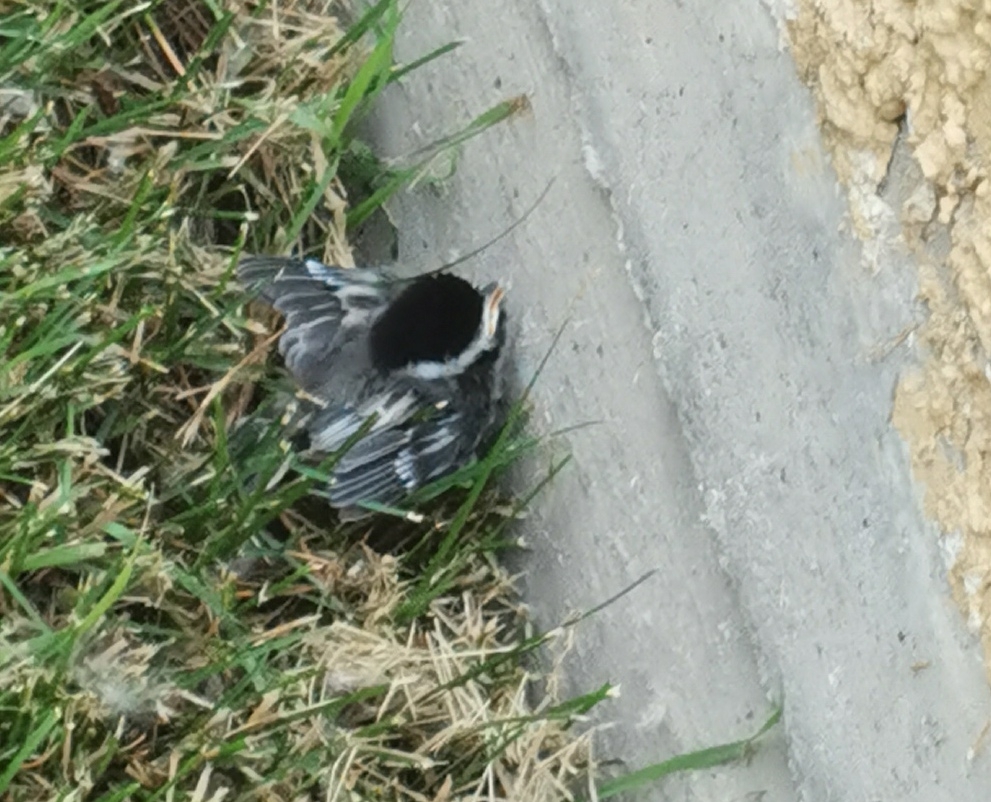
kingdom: Animalia
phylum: Chordata
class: Aves
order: Passeriformes
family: Paridae
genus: Poecile
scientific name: Poecile atricapillus
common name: Black-capped chickadee
